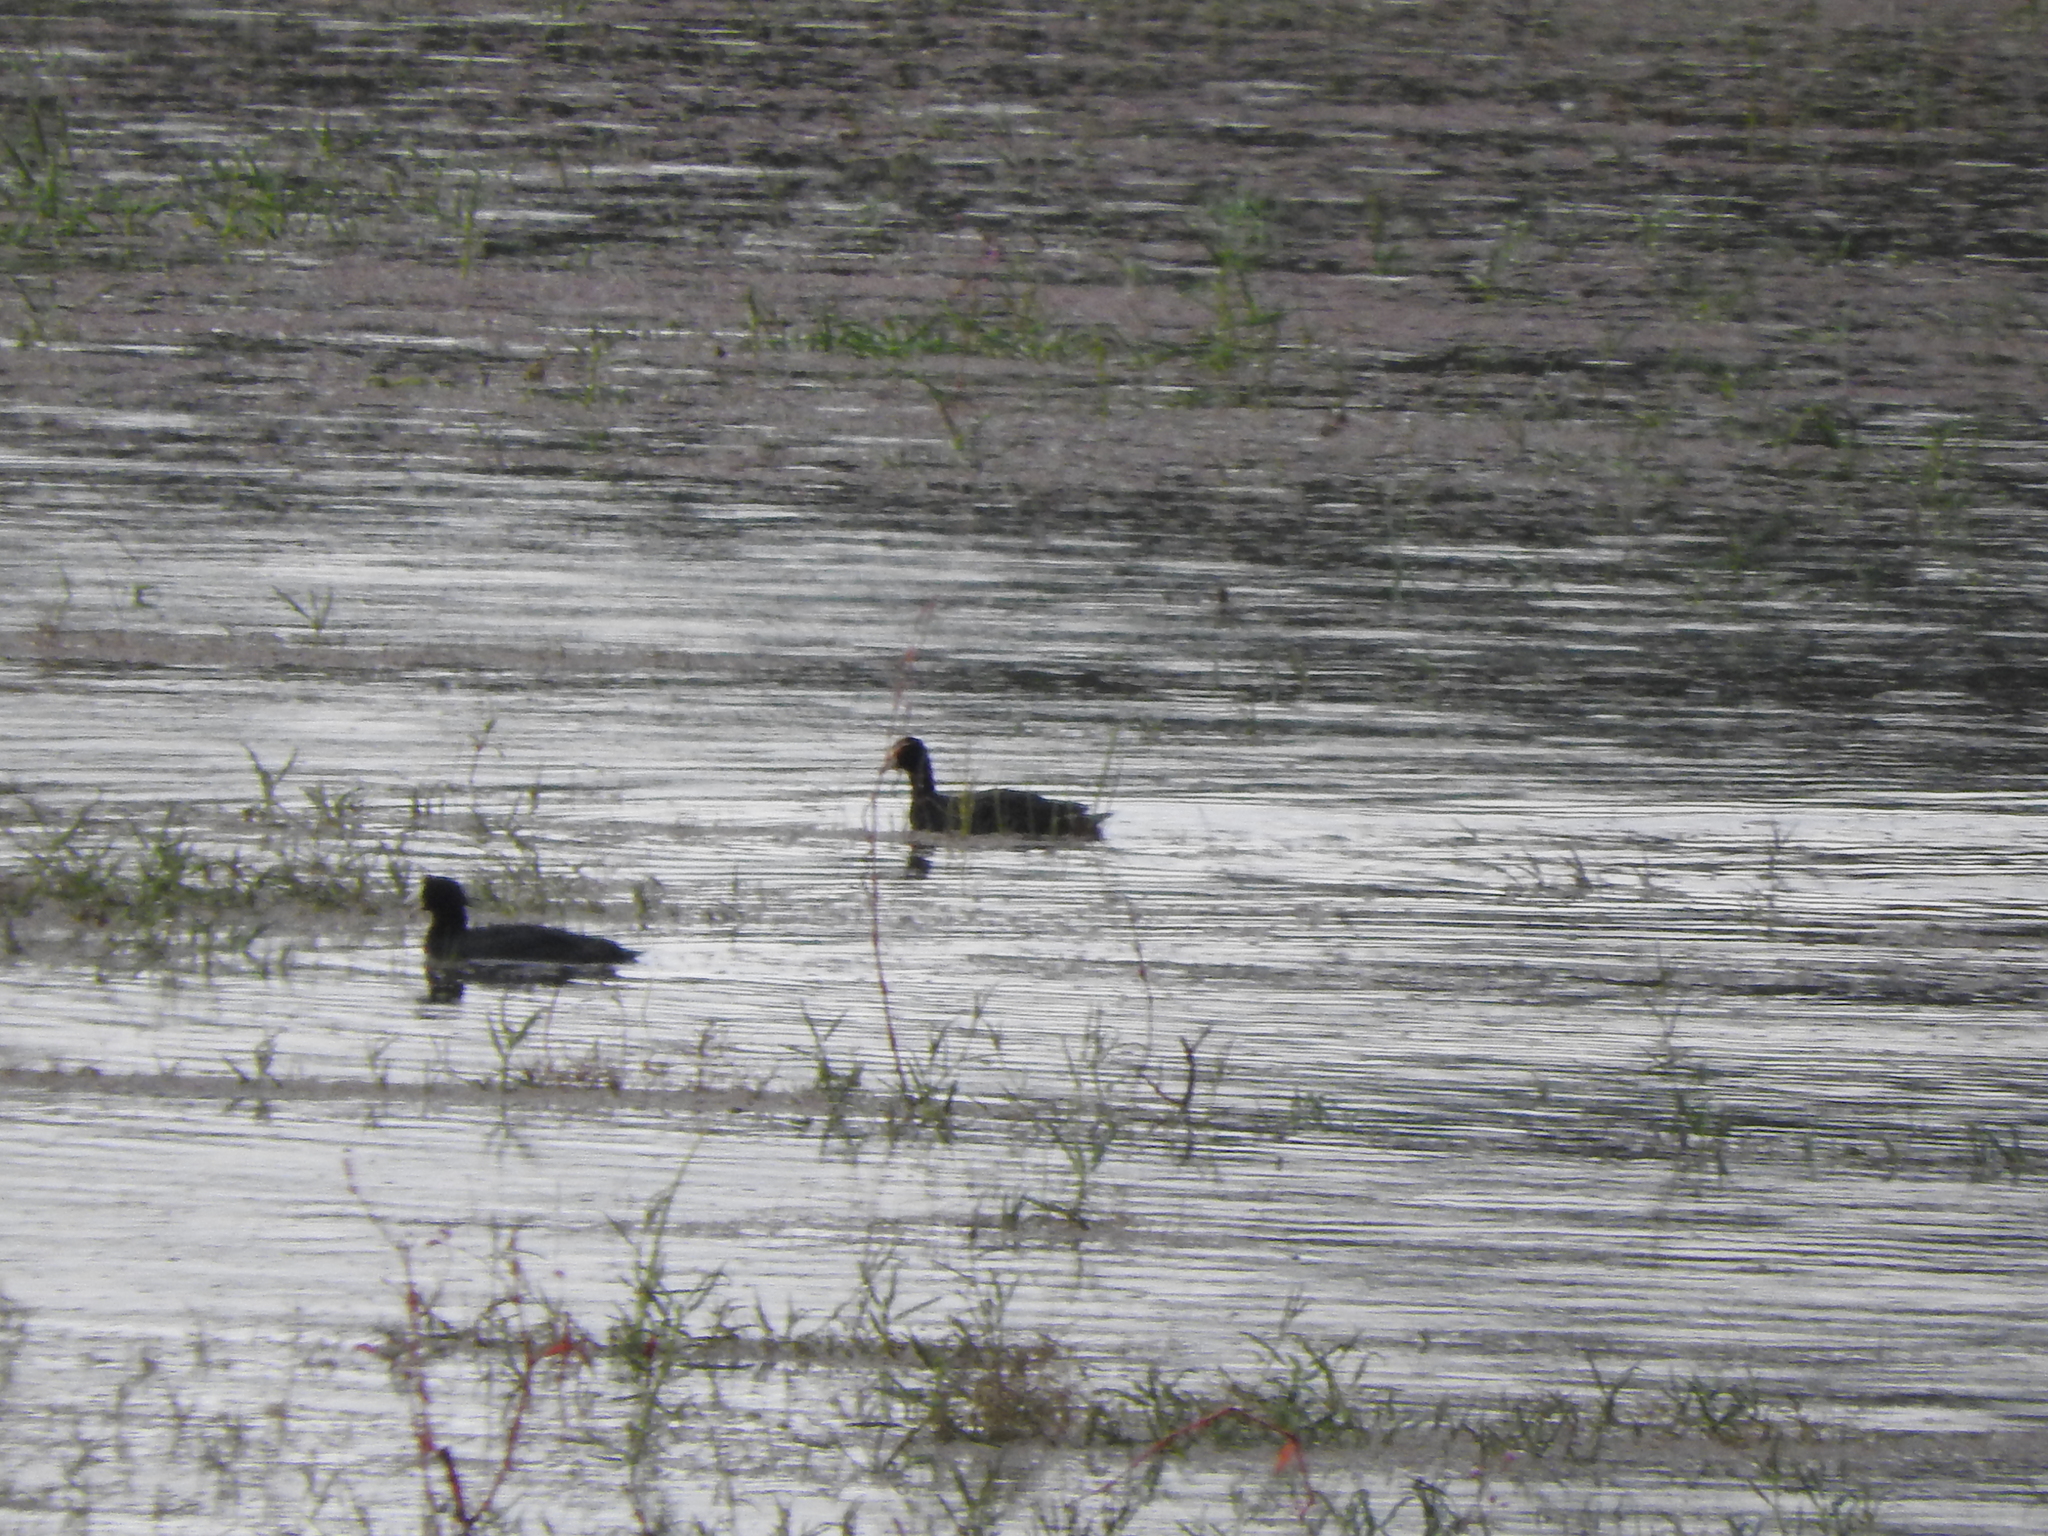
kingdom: Animalia
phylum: Chordata
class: Aves
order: Gruiformes
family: Rallidae
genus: Fulica
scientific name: Fulica americana
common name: American coot
